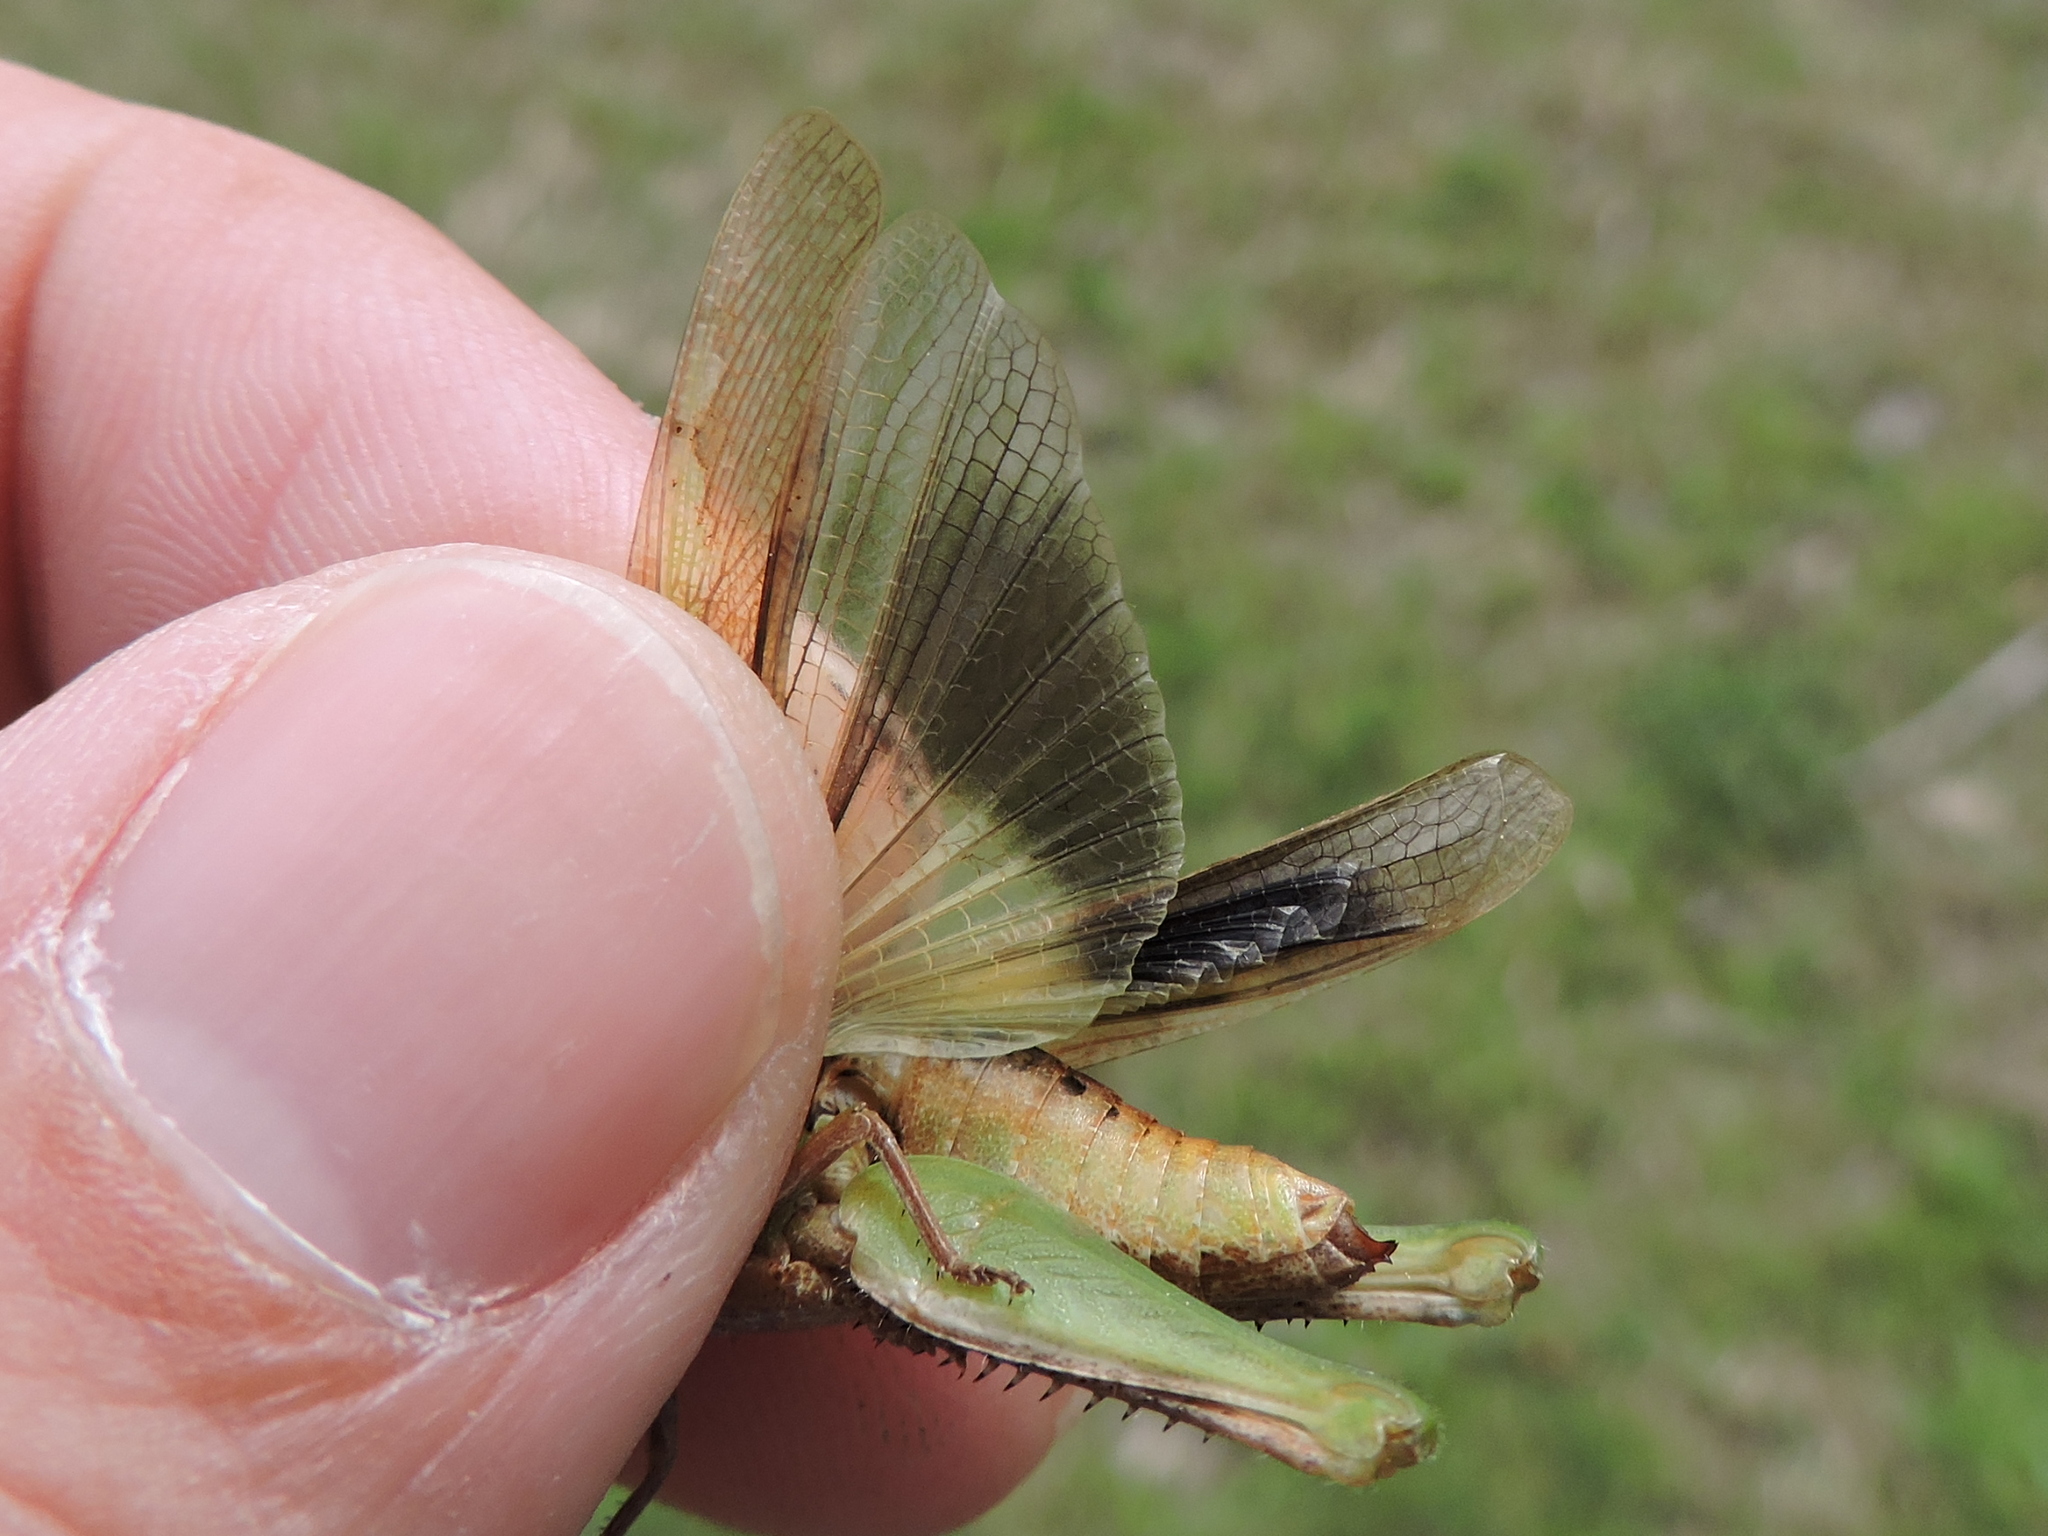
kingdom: Animalia
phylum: Arthropoda
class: Insecta
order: Orthoptera
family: Acrididae
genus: Chortophaga
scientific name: Chortophaga viridifasciata
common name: Green-striped grasshopper
